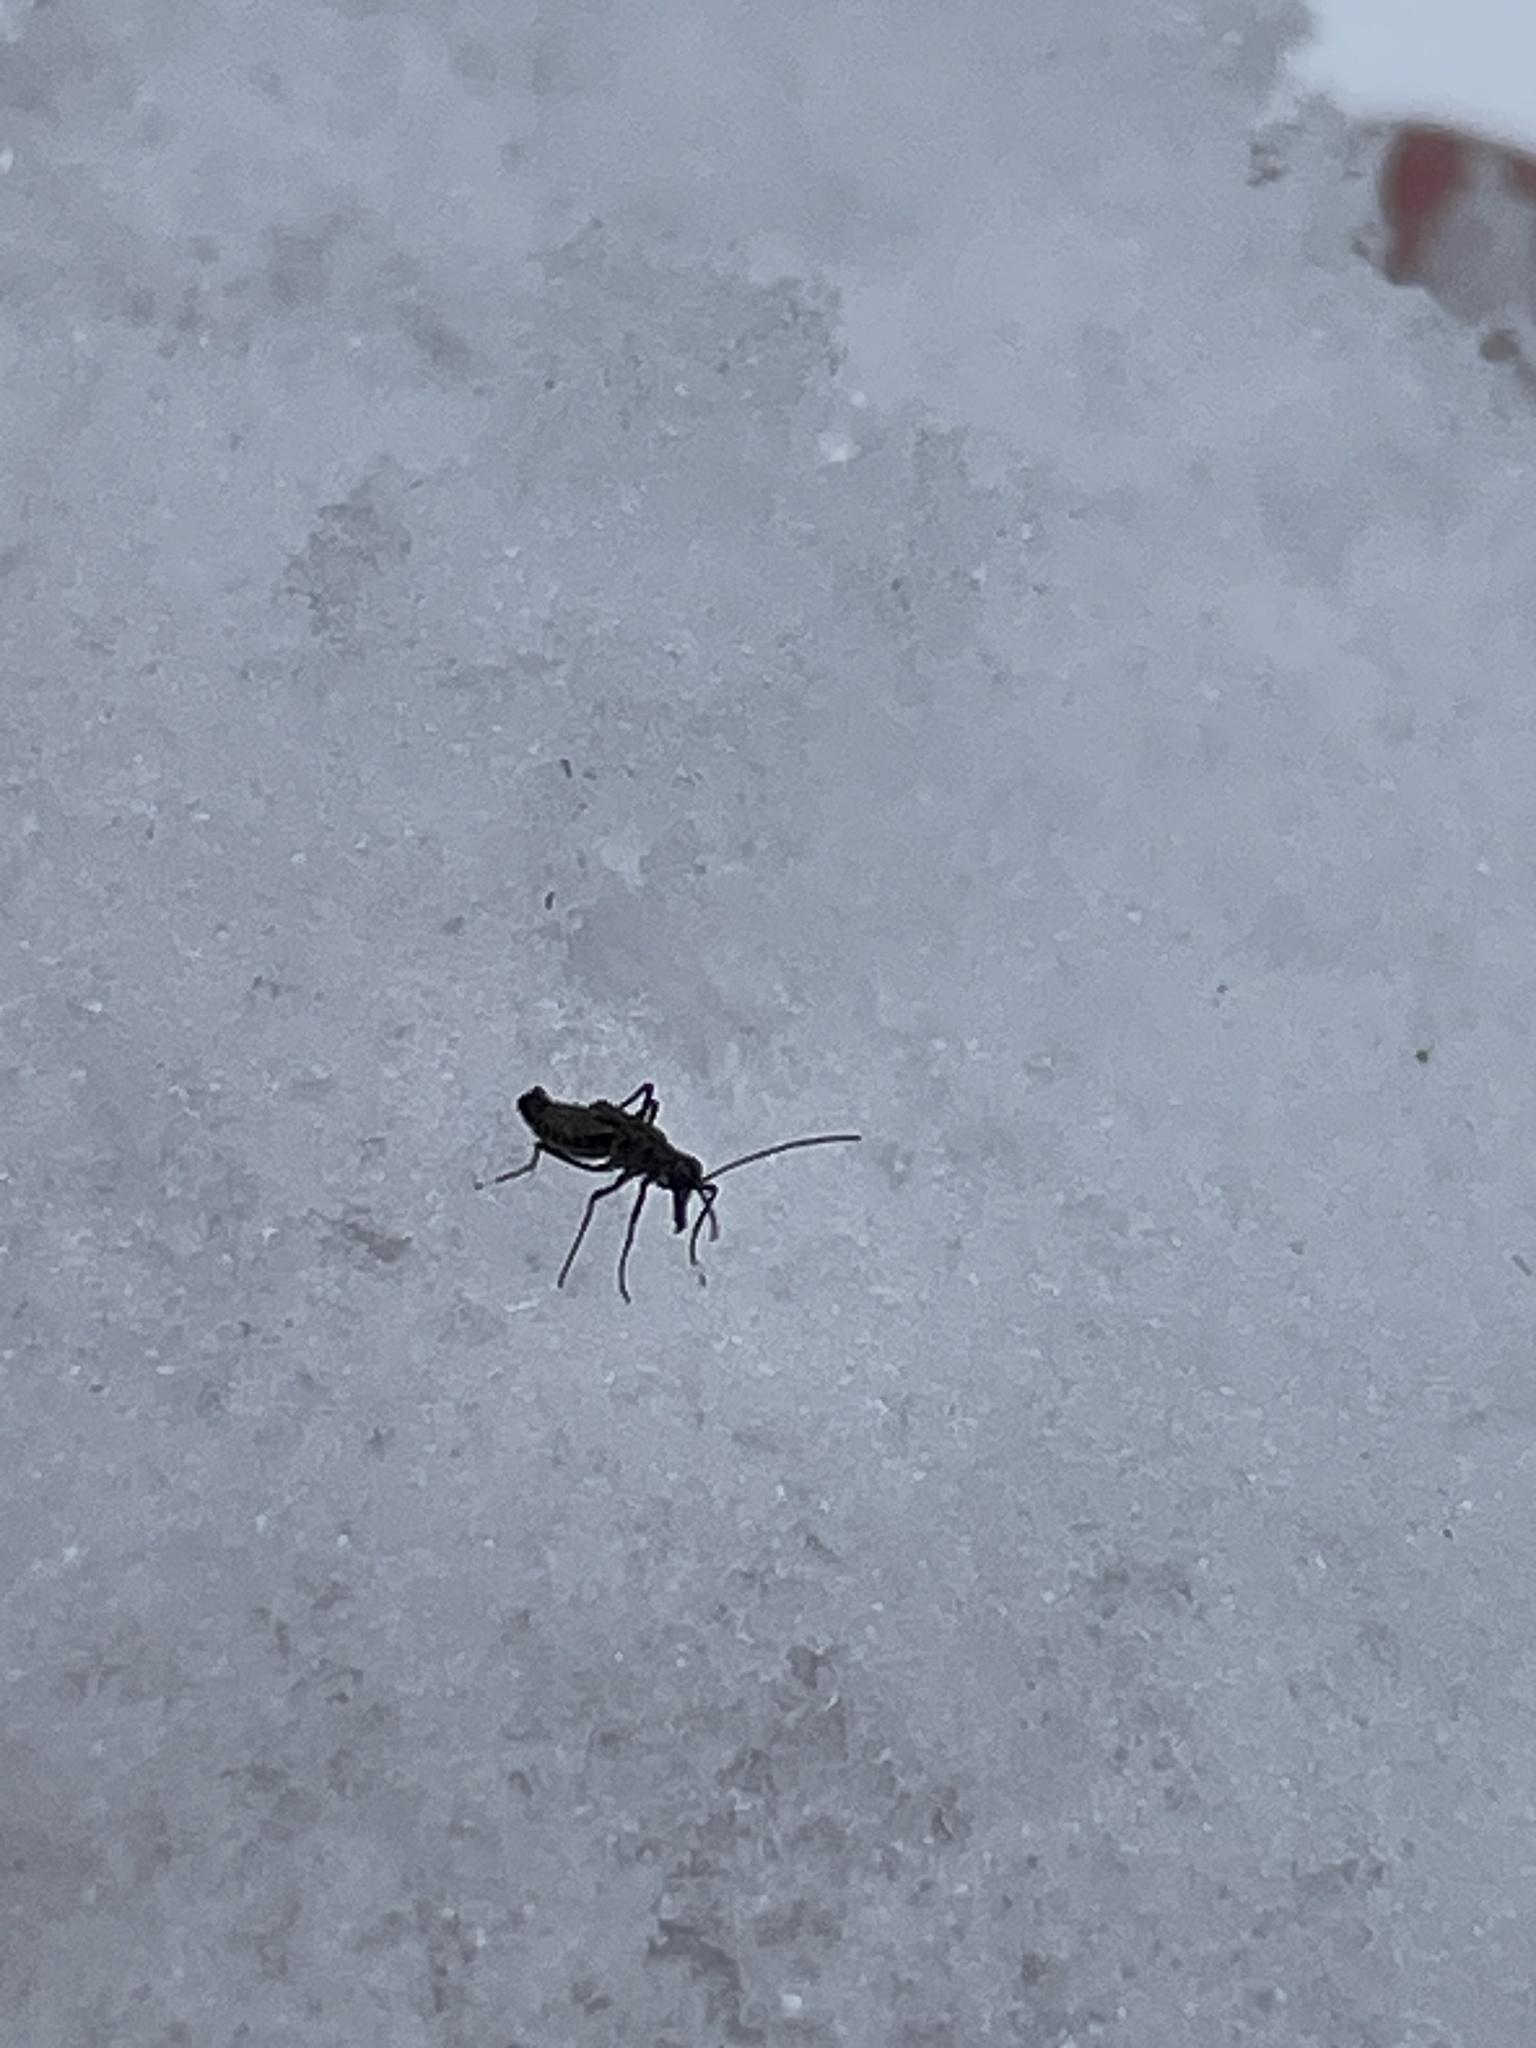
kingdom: Animalia
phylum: Arthropoda
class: Insecta
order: Mecoptera
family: Boreidae
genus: Boreus
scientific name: Boreus brumalis
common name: Mid-winter boreus
